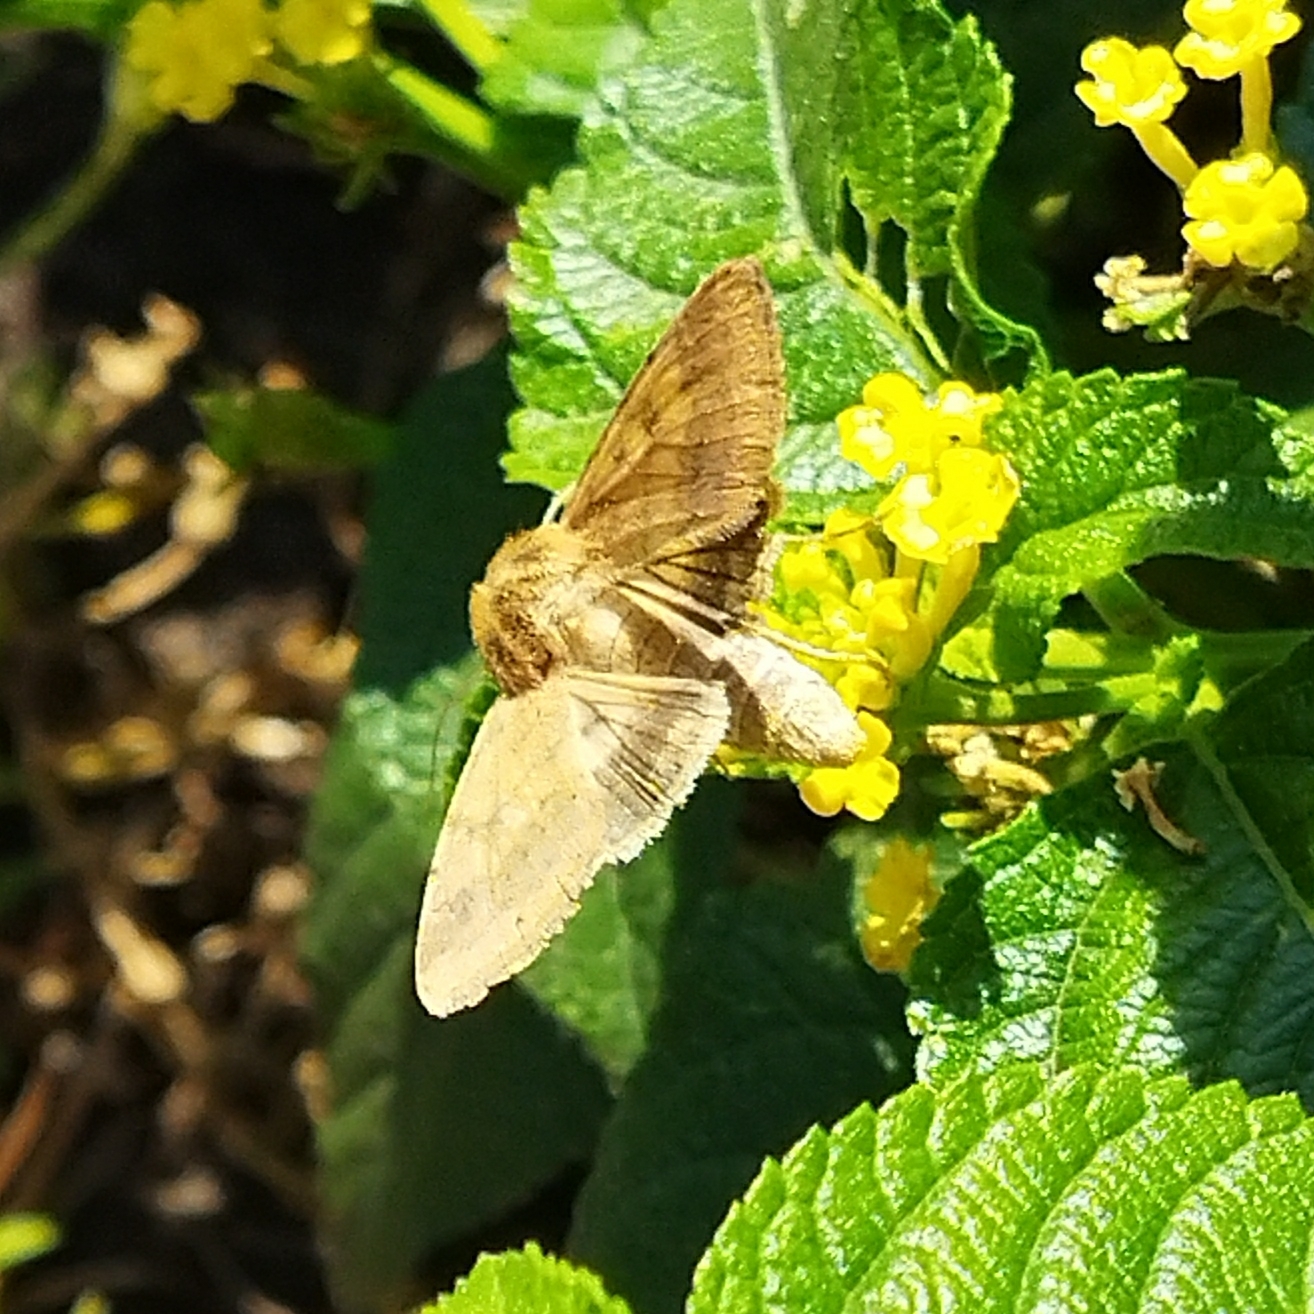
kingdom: Animalia
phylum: Arthropoda
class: Insecta
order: Lepidoptera
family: Noctuidae
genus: Helicoverpa
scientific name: Helicoverpa armigera
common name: Cotton bollworm
